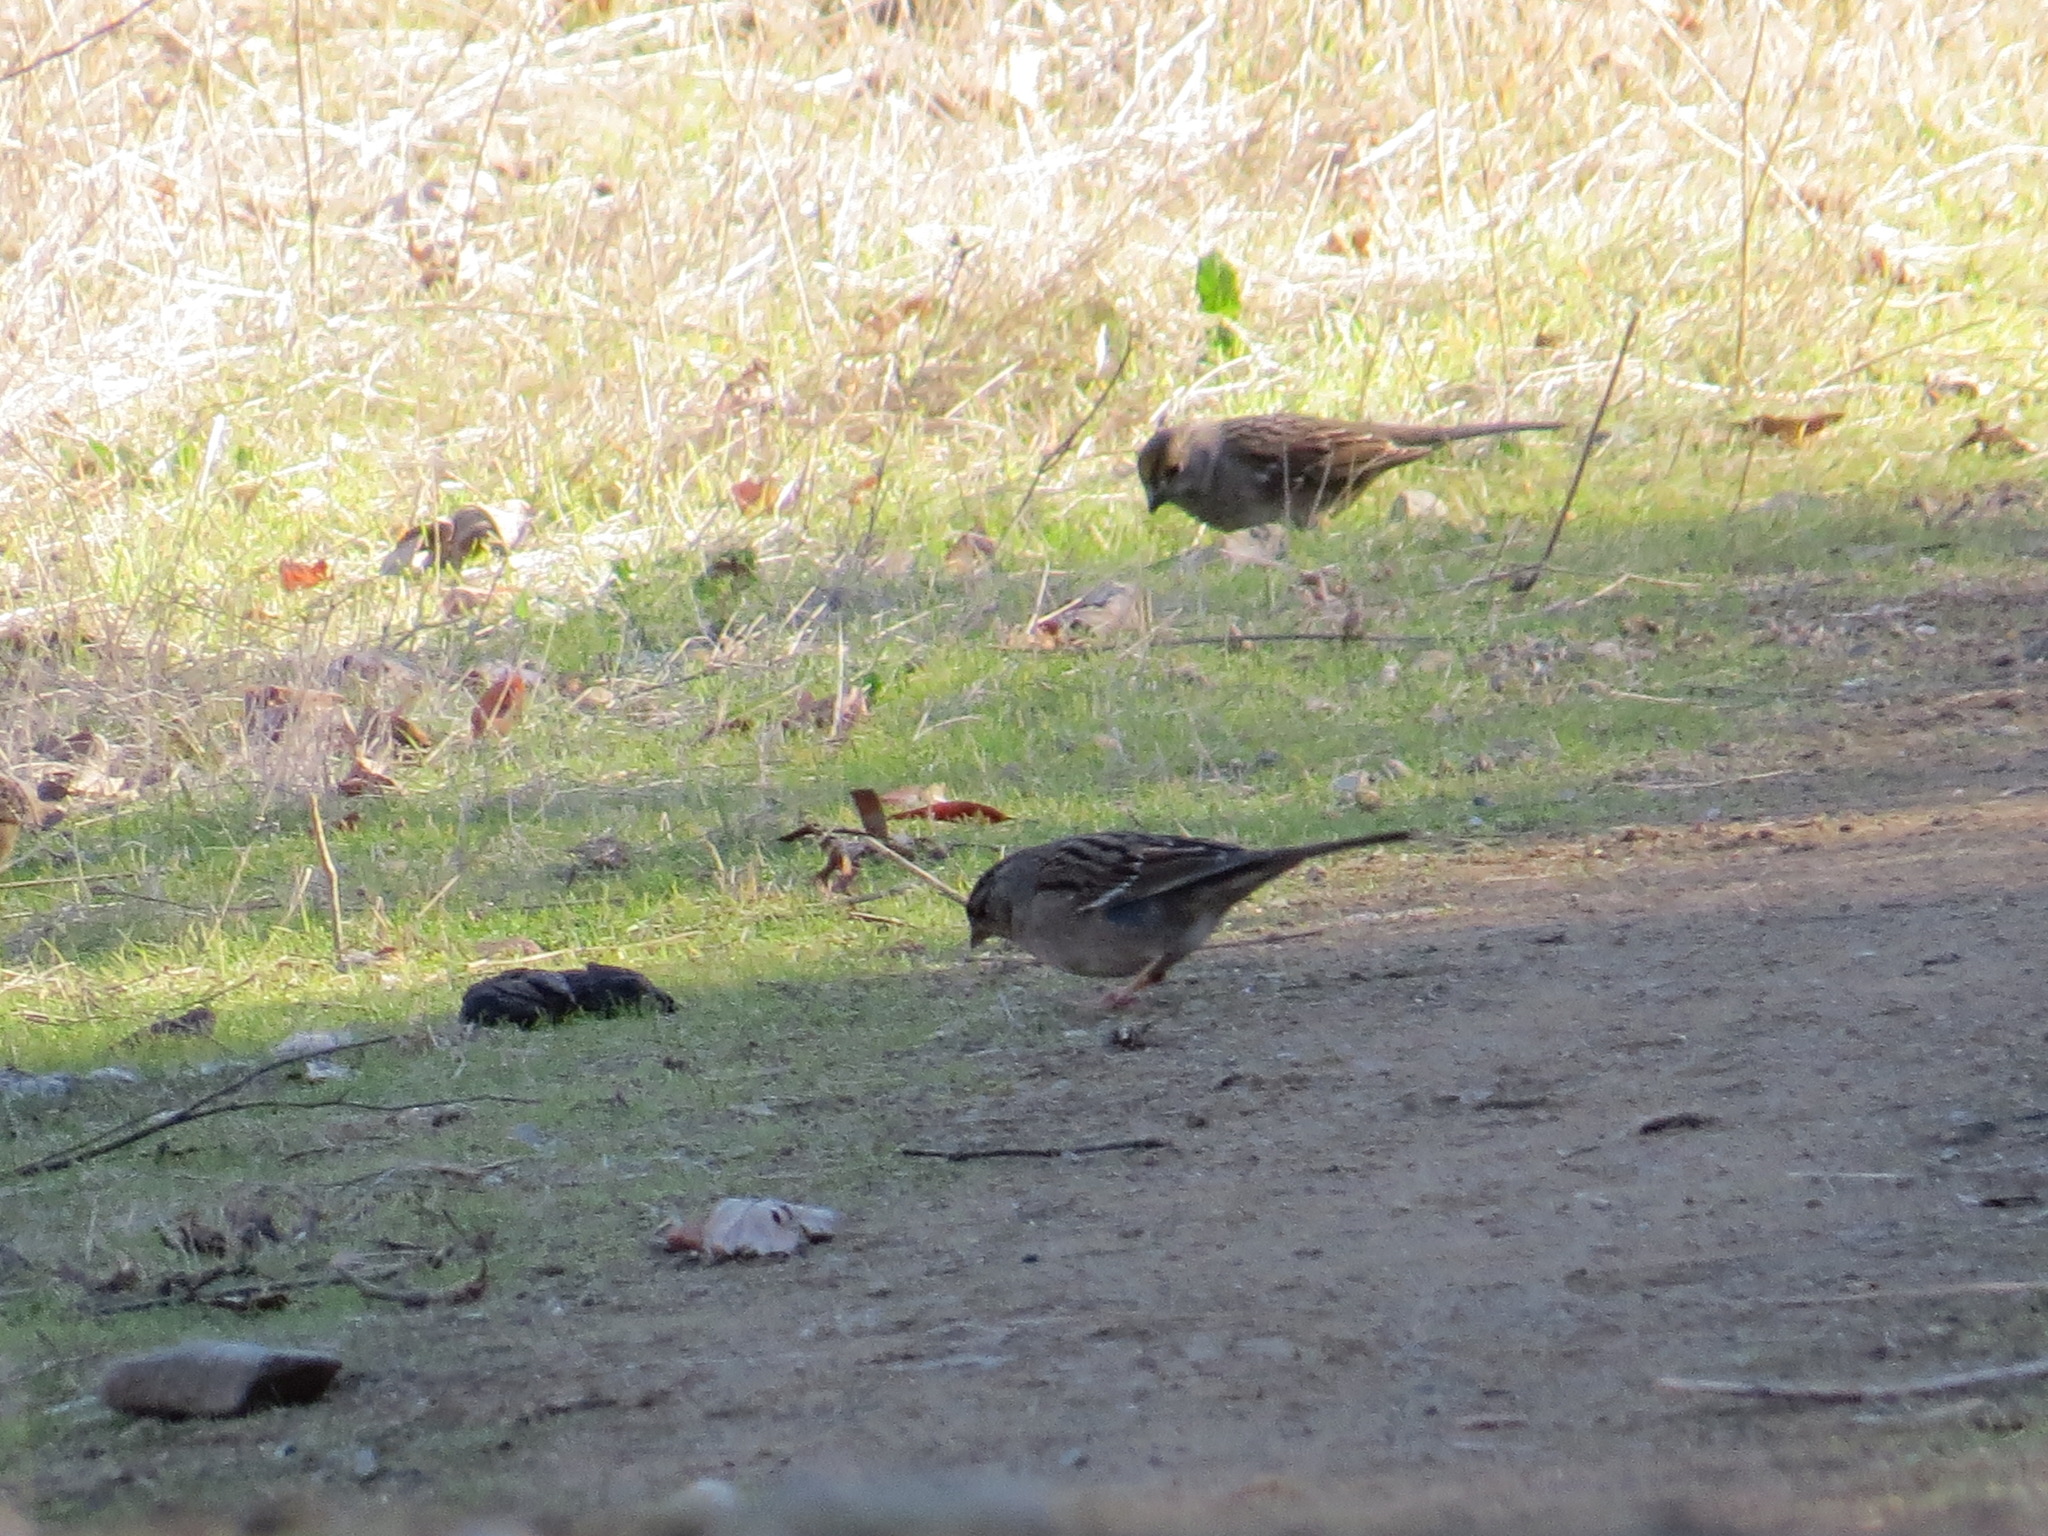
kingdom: Animalia
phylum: Chordata
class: Aves
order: Passeriformes
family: Passerellidae
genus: Zonotrichia
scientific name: Zonotrichia atricapilla
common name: Golden-crowned sparrow
